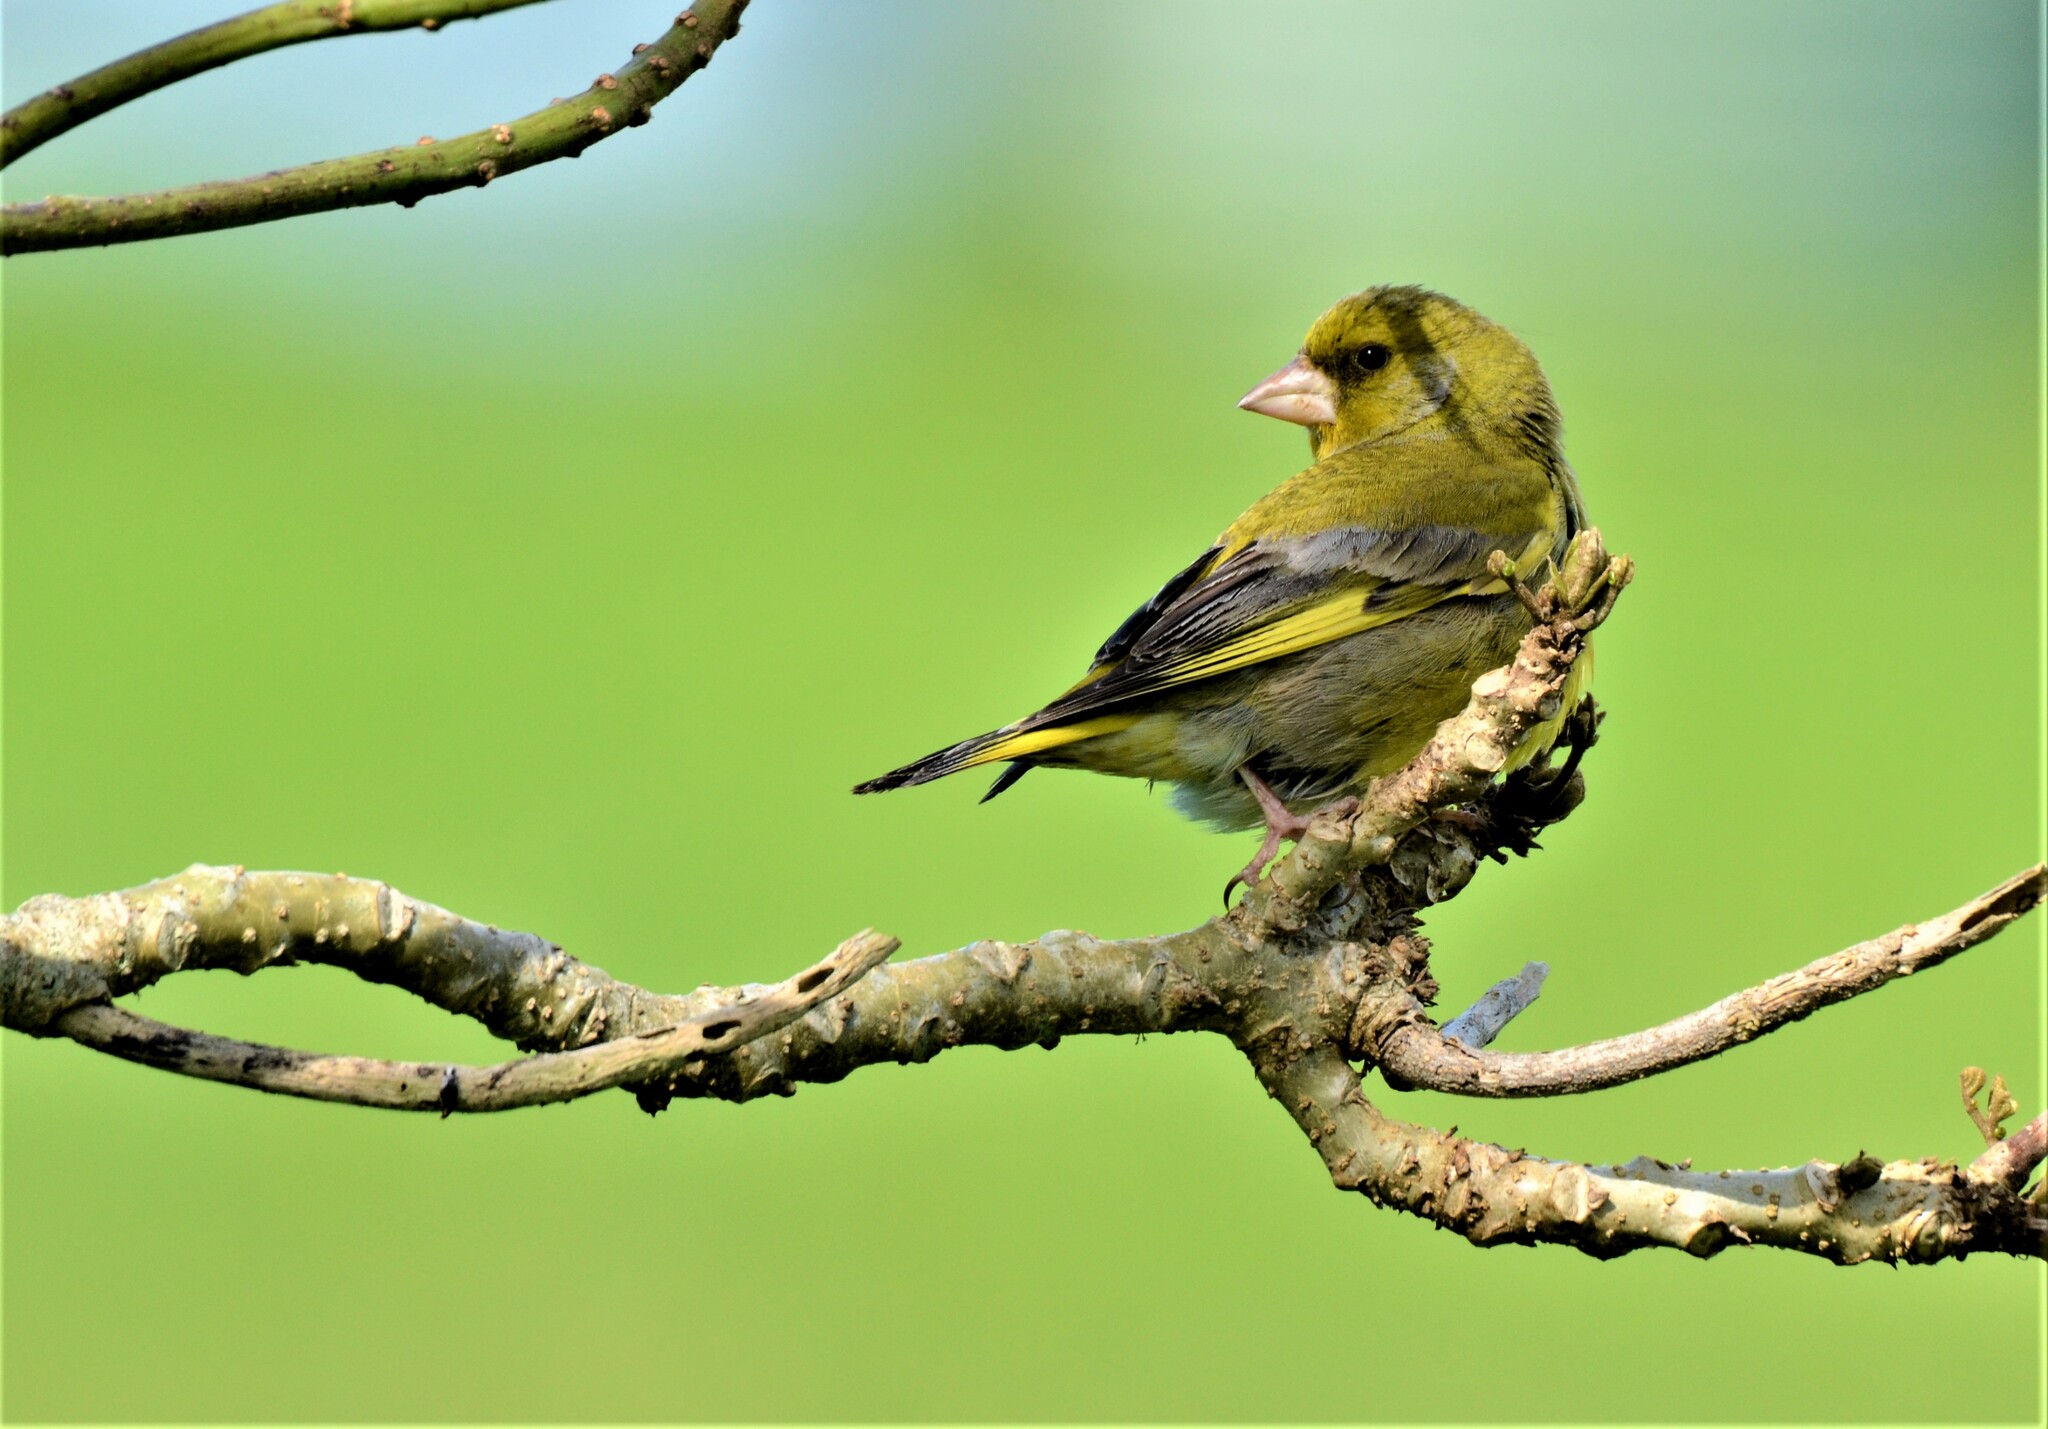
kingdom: Plantae
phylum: Tracheophyta
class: Liliopsida
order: Poales
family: Poaceae
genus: Chloris
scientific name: Chloris chloris
